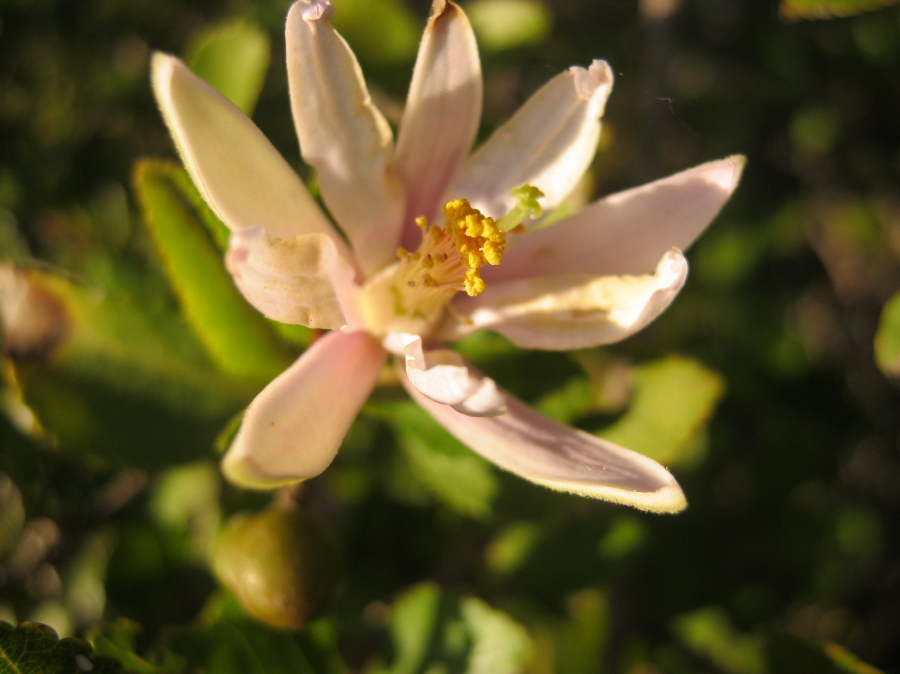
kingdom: Plantae
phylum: Tracheophyta
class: Magnoliopsida
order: Malvales
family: Malvaceae
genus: Grewia
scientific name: Grewia occidentalis
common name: Crossberry
